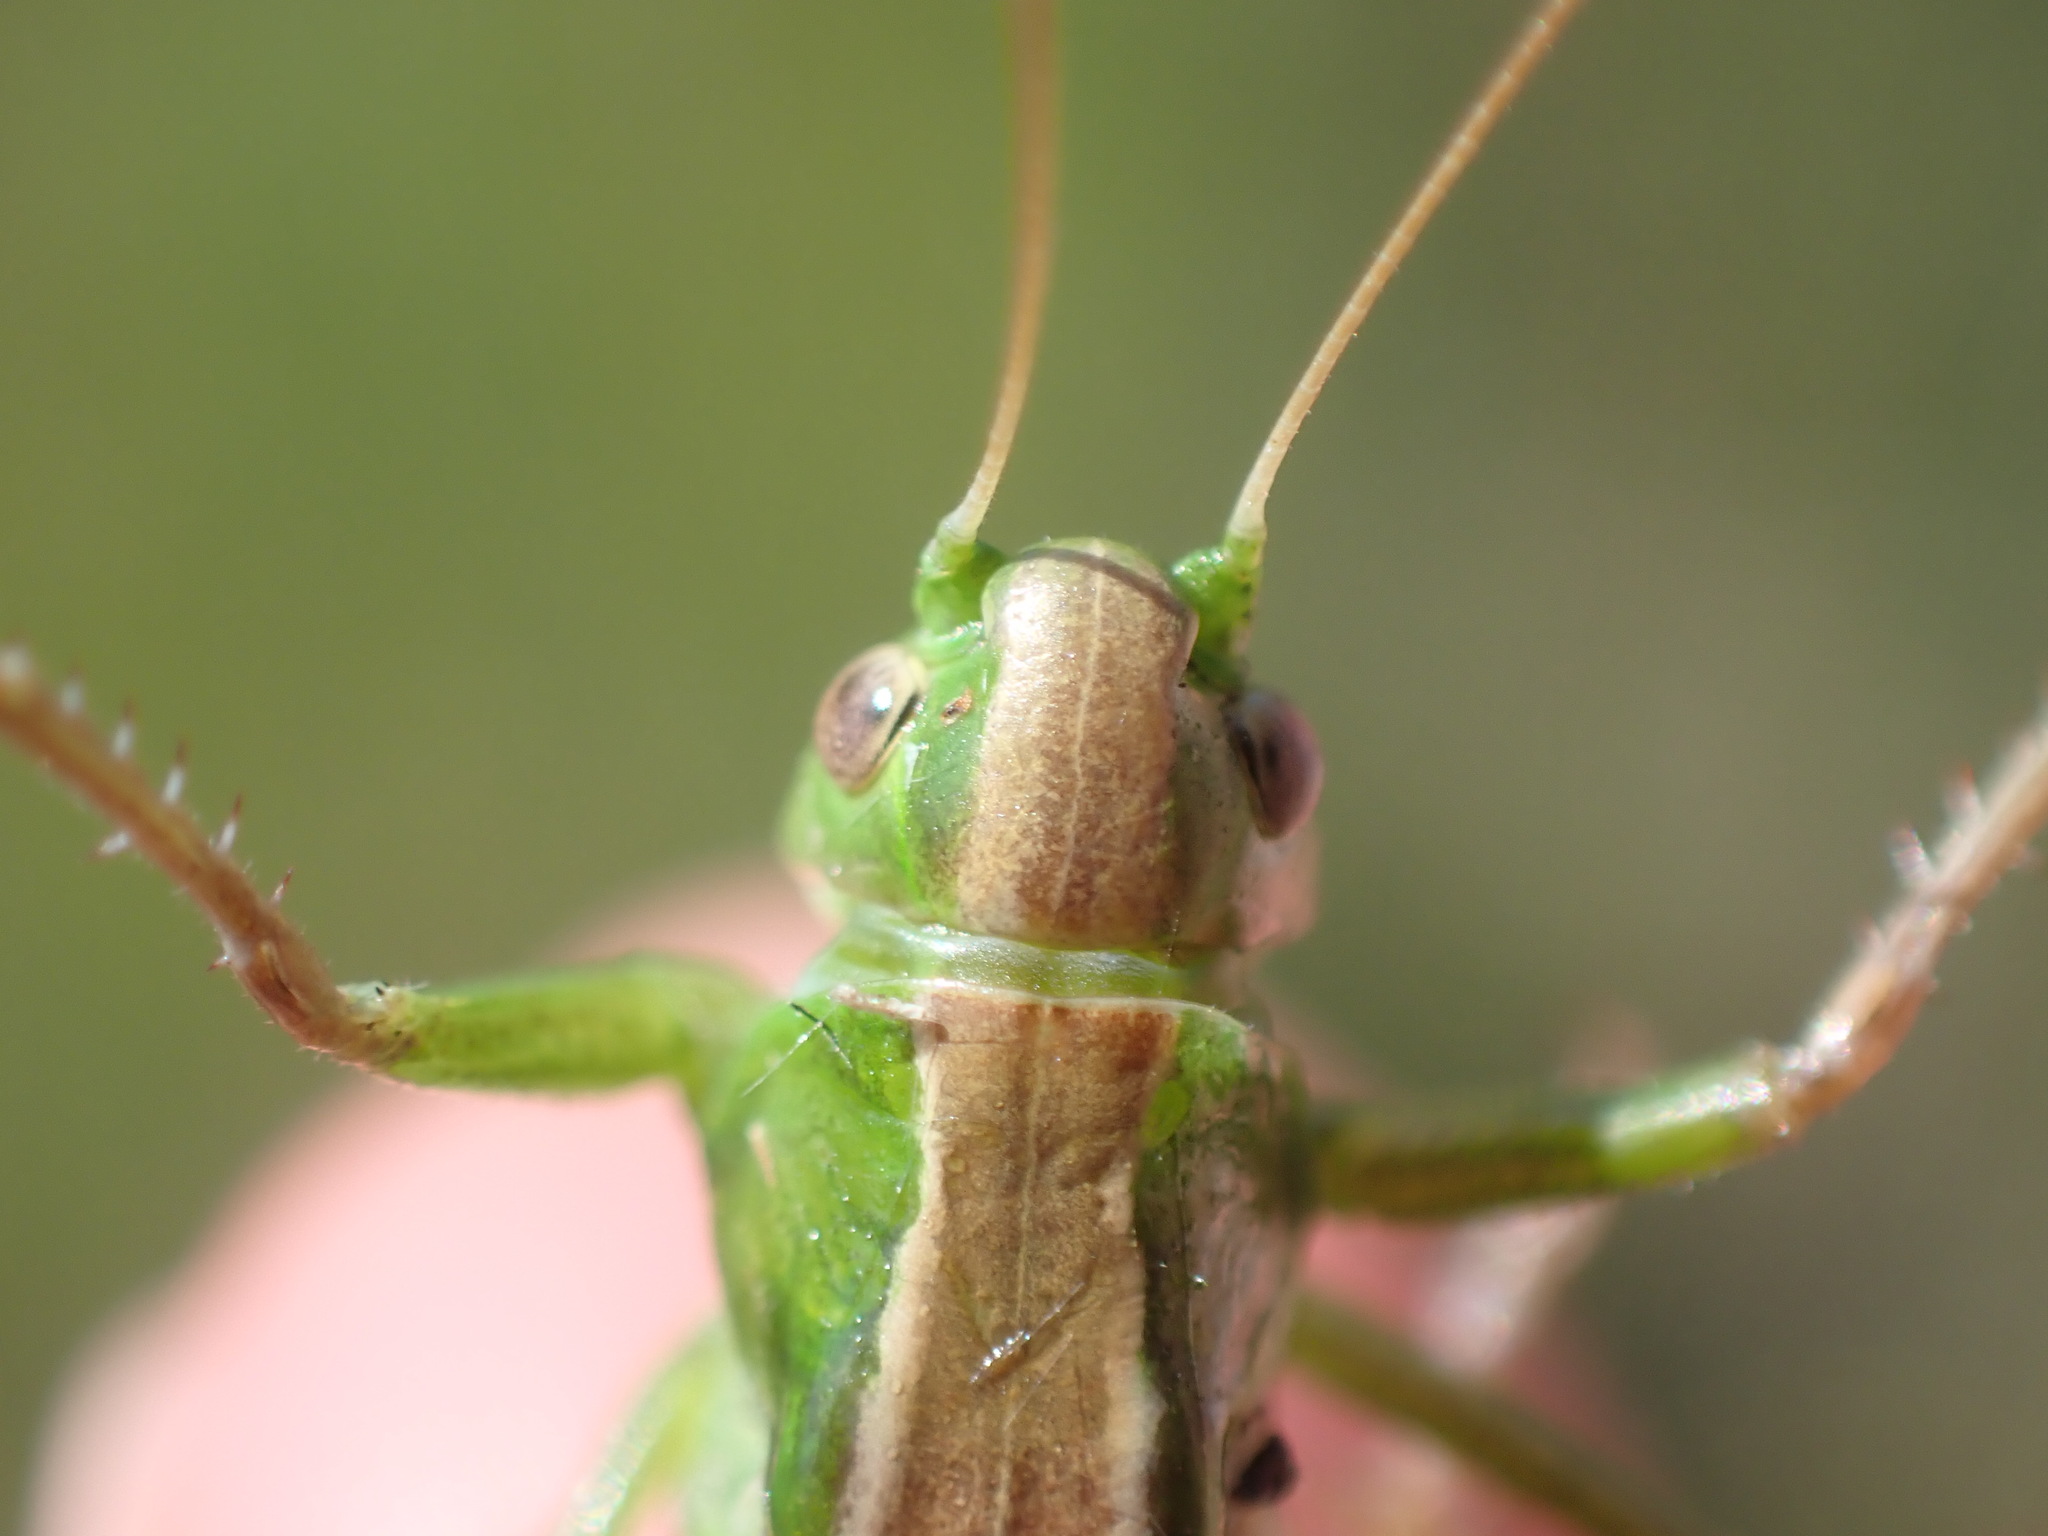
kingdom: Animalia
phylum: Arthropoda
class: Insecta
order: Orthoptera
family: Tettigoniidae
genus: Bicolorana
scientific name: Bicolorana bicolor
